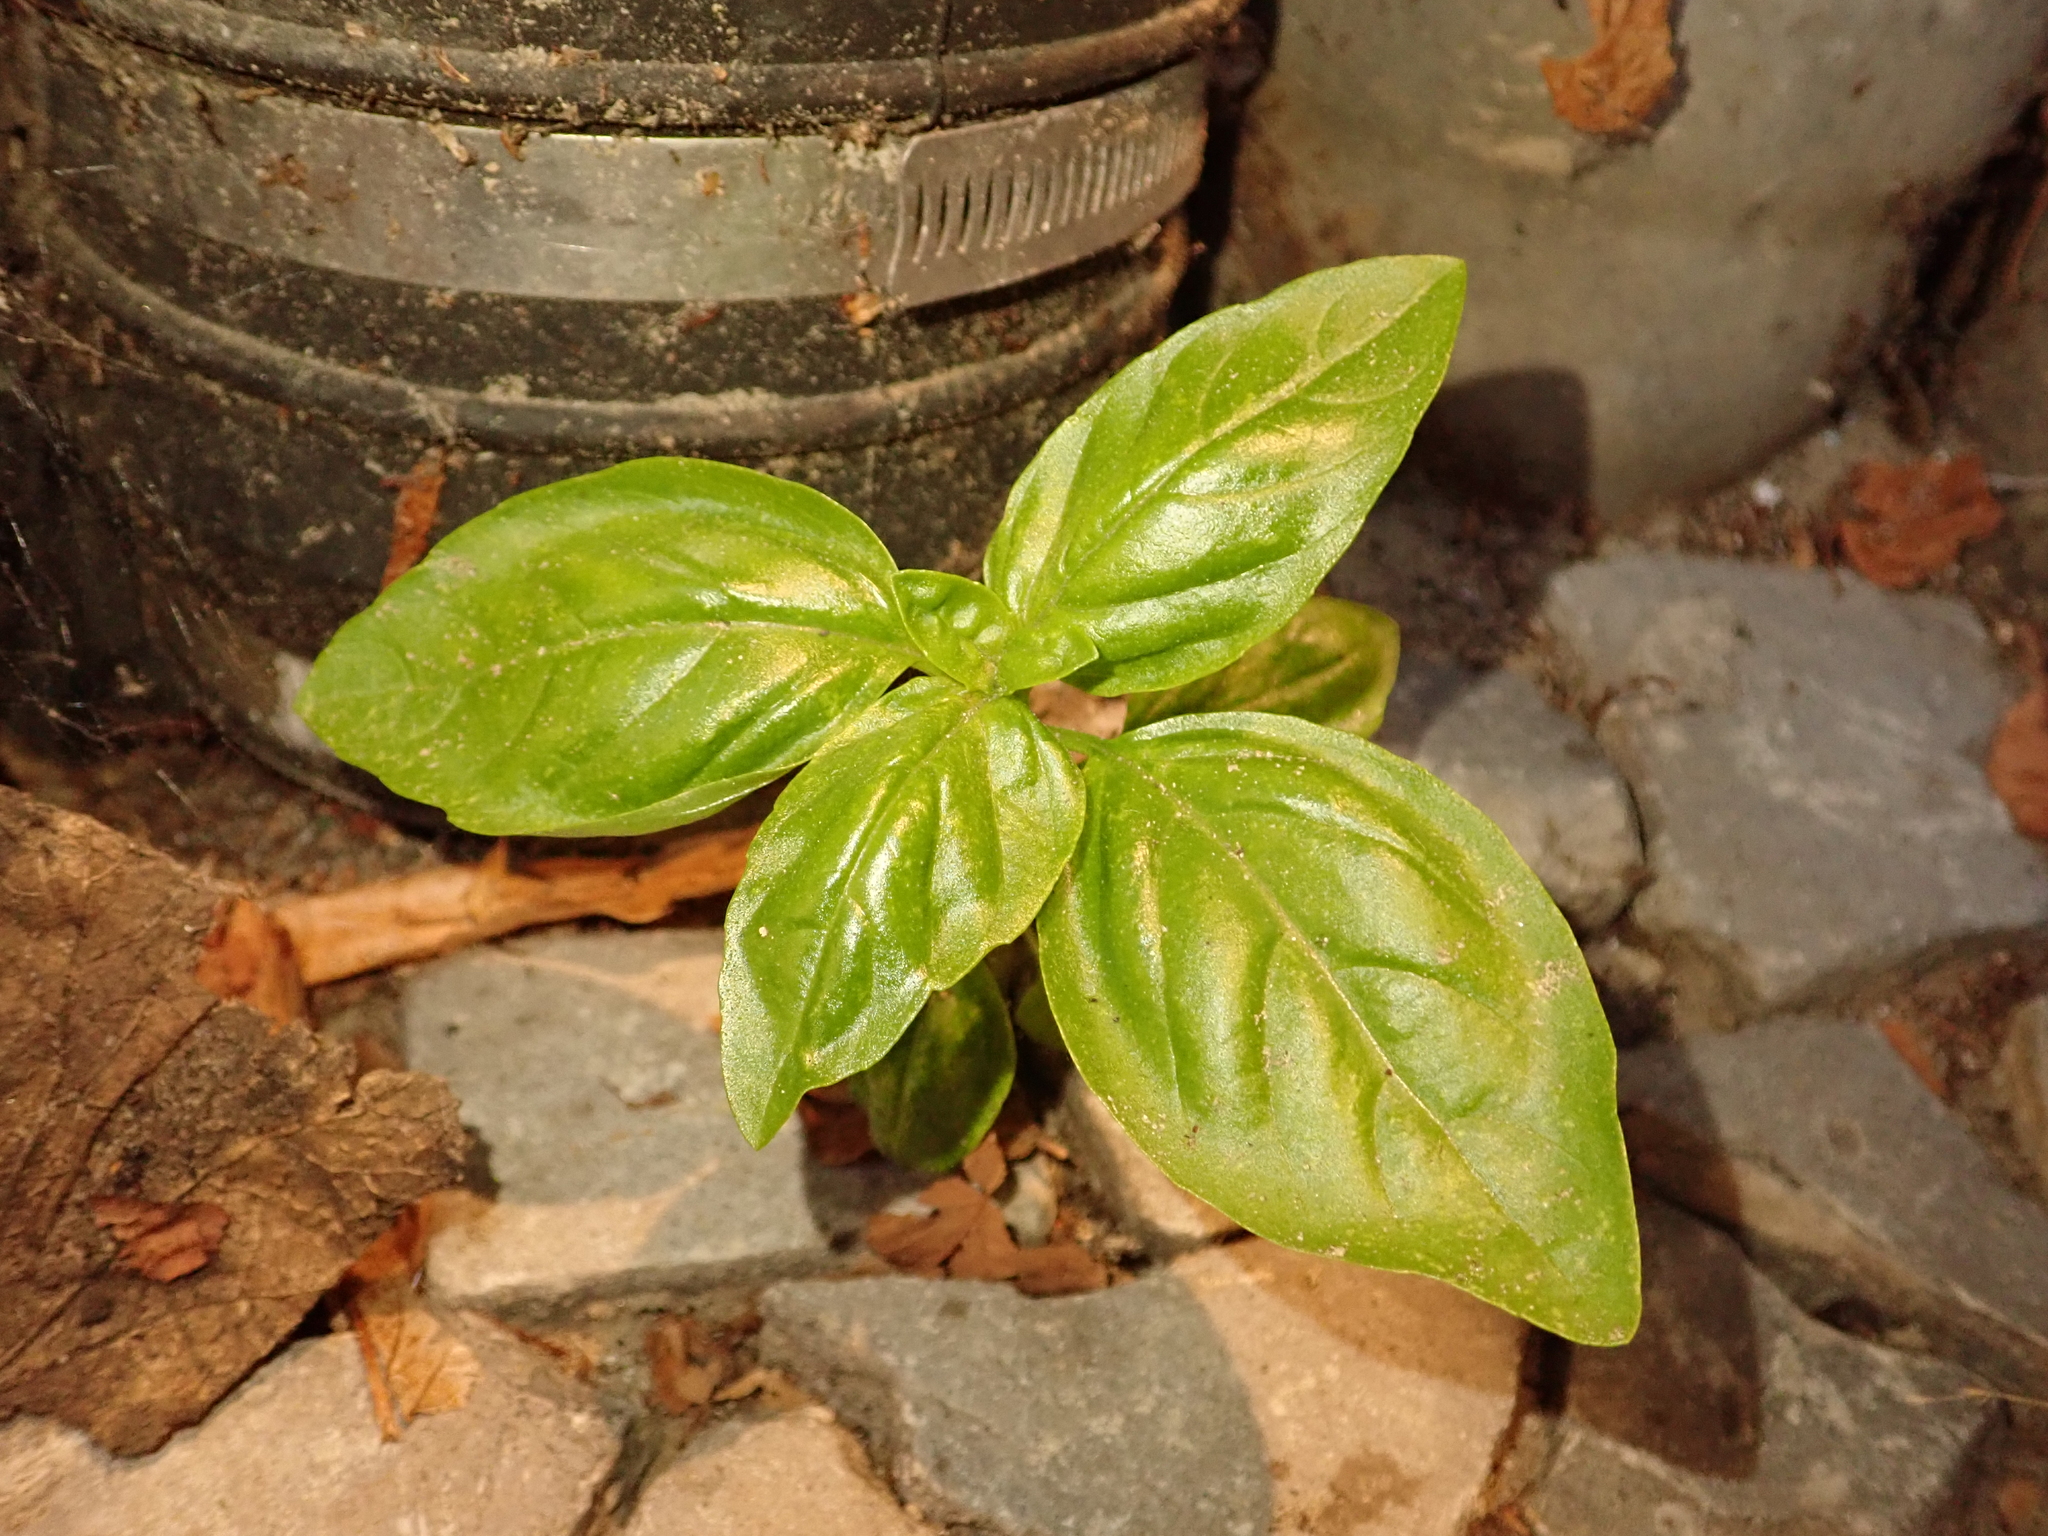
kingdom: Plantae
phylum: Tracheophyta
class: Magnoliopsida
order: Lamiales
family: Lamiaceae
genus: Ocimum
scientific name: Ocimum basilicum
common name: Sweet basil
